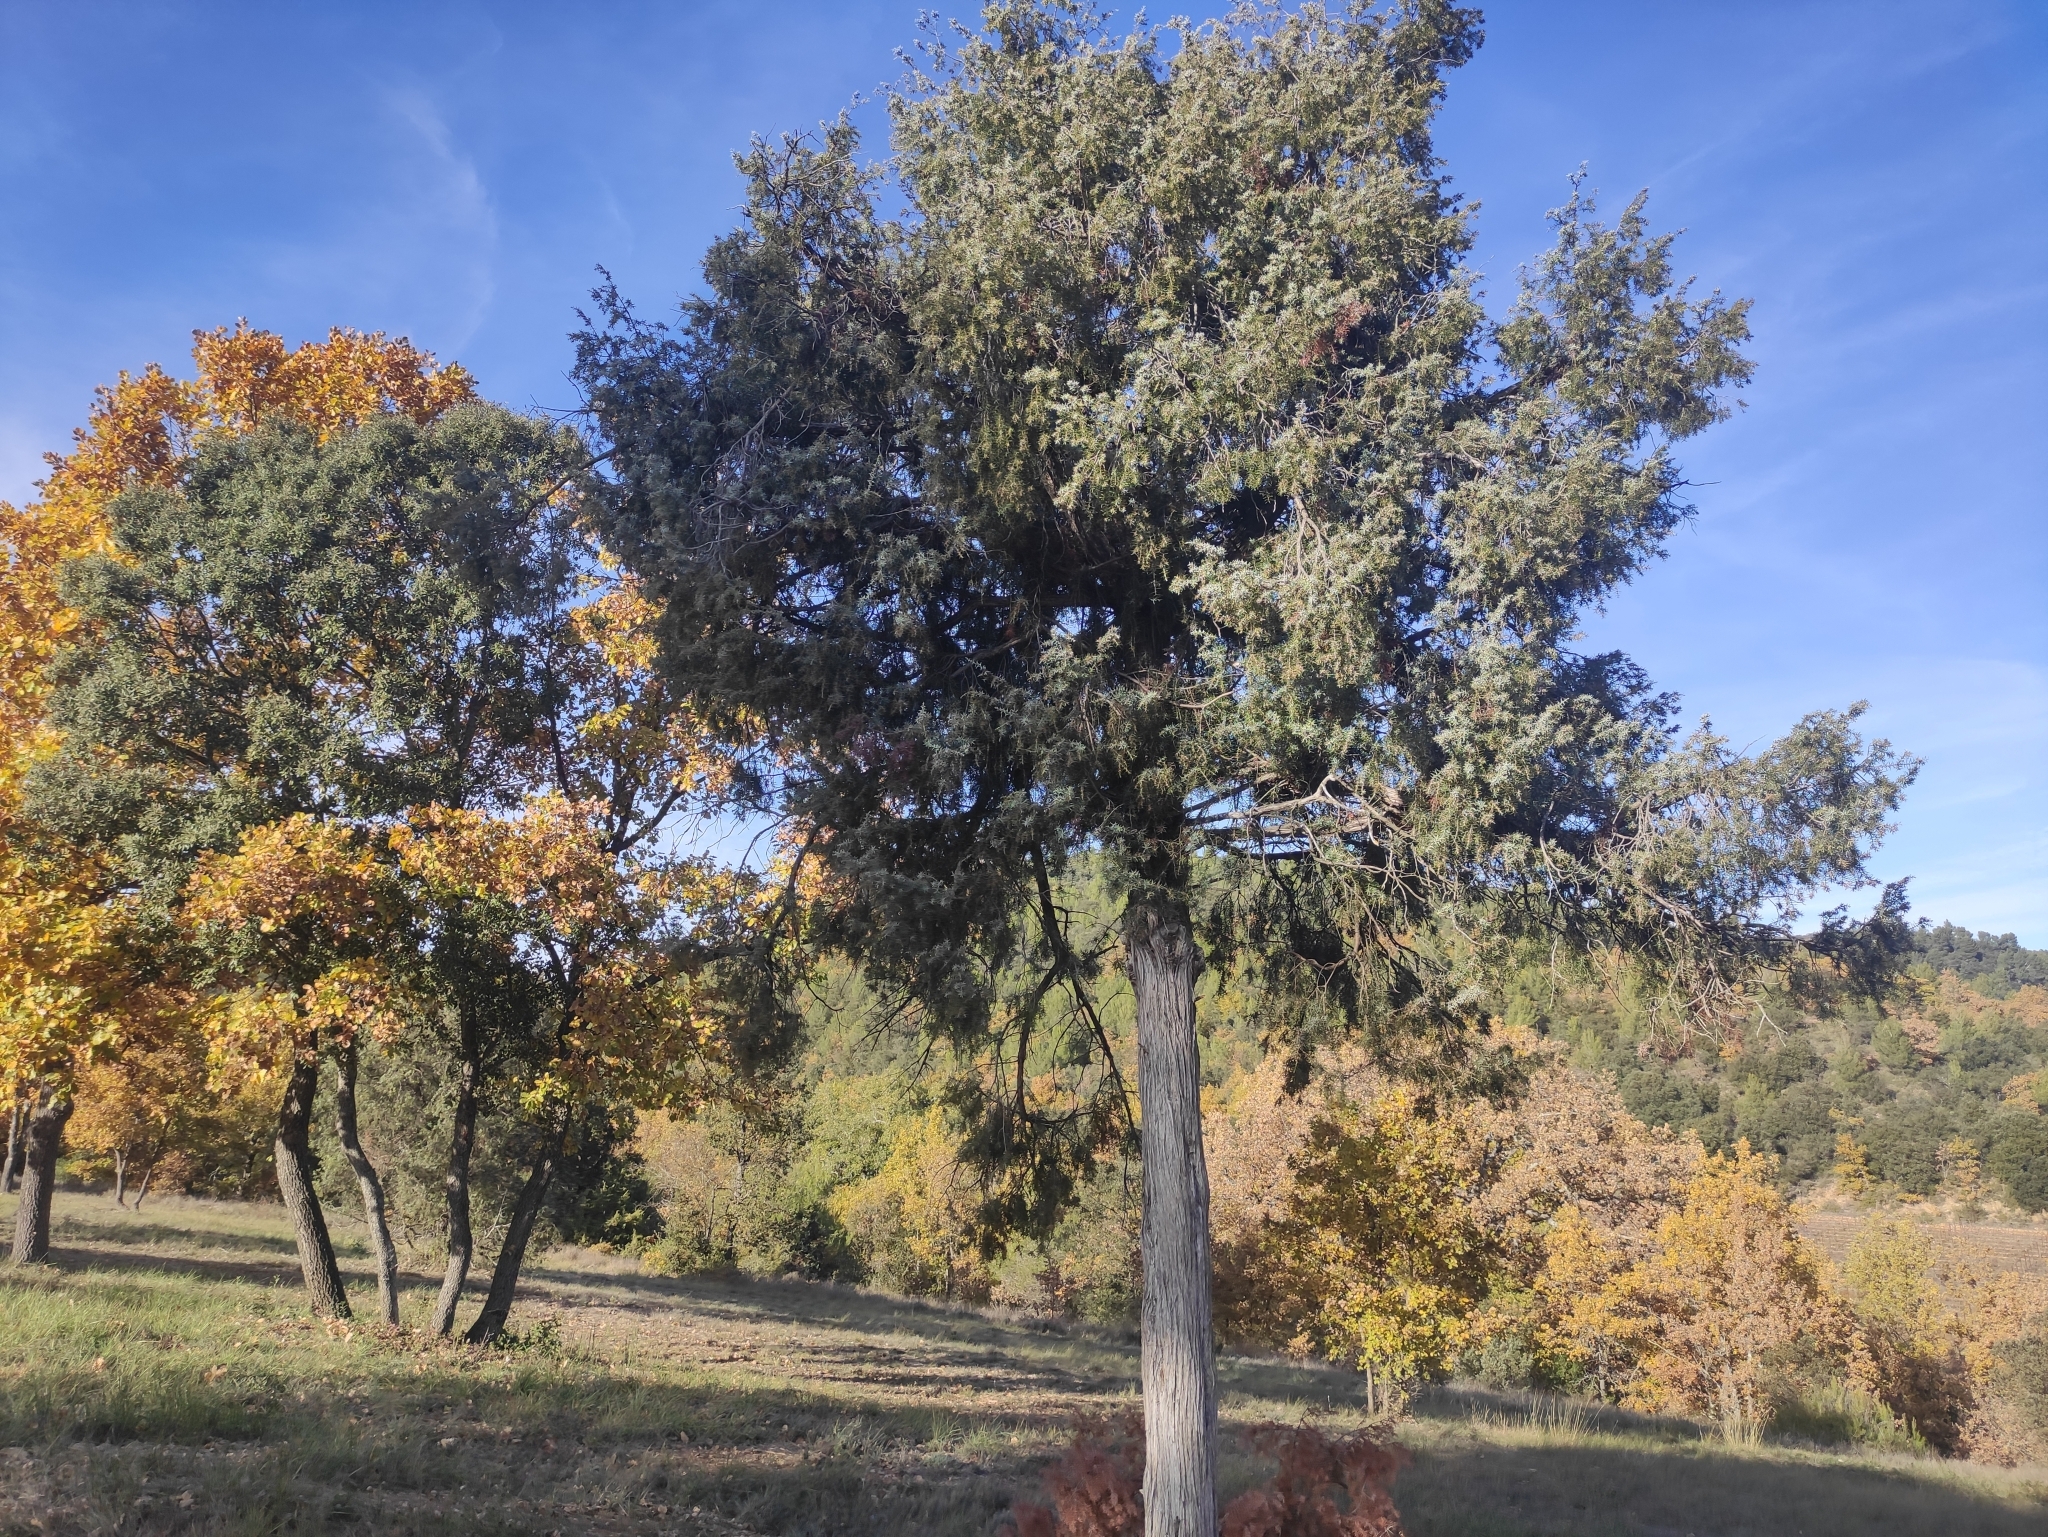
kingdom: Plantae
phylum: Tracheophyta
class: Pinopsida
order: Pinales
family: Cupressaceae
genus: Juniperus
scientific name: Juniperus oxycedrus
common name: Prickly juniper
